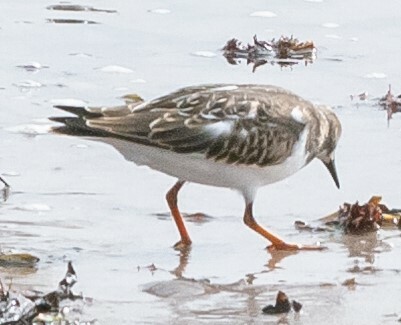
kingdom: Animalia
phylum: Chordata
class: Aves
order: Charadriiformes
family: Scolopacidae
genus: Arenaria
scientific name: Arenaria interpres
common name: Ruddy turnstone
